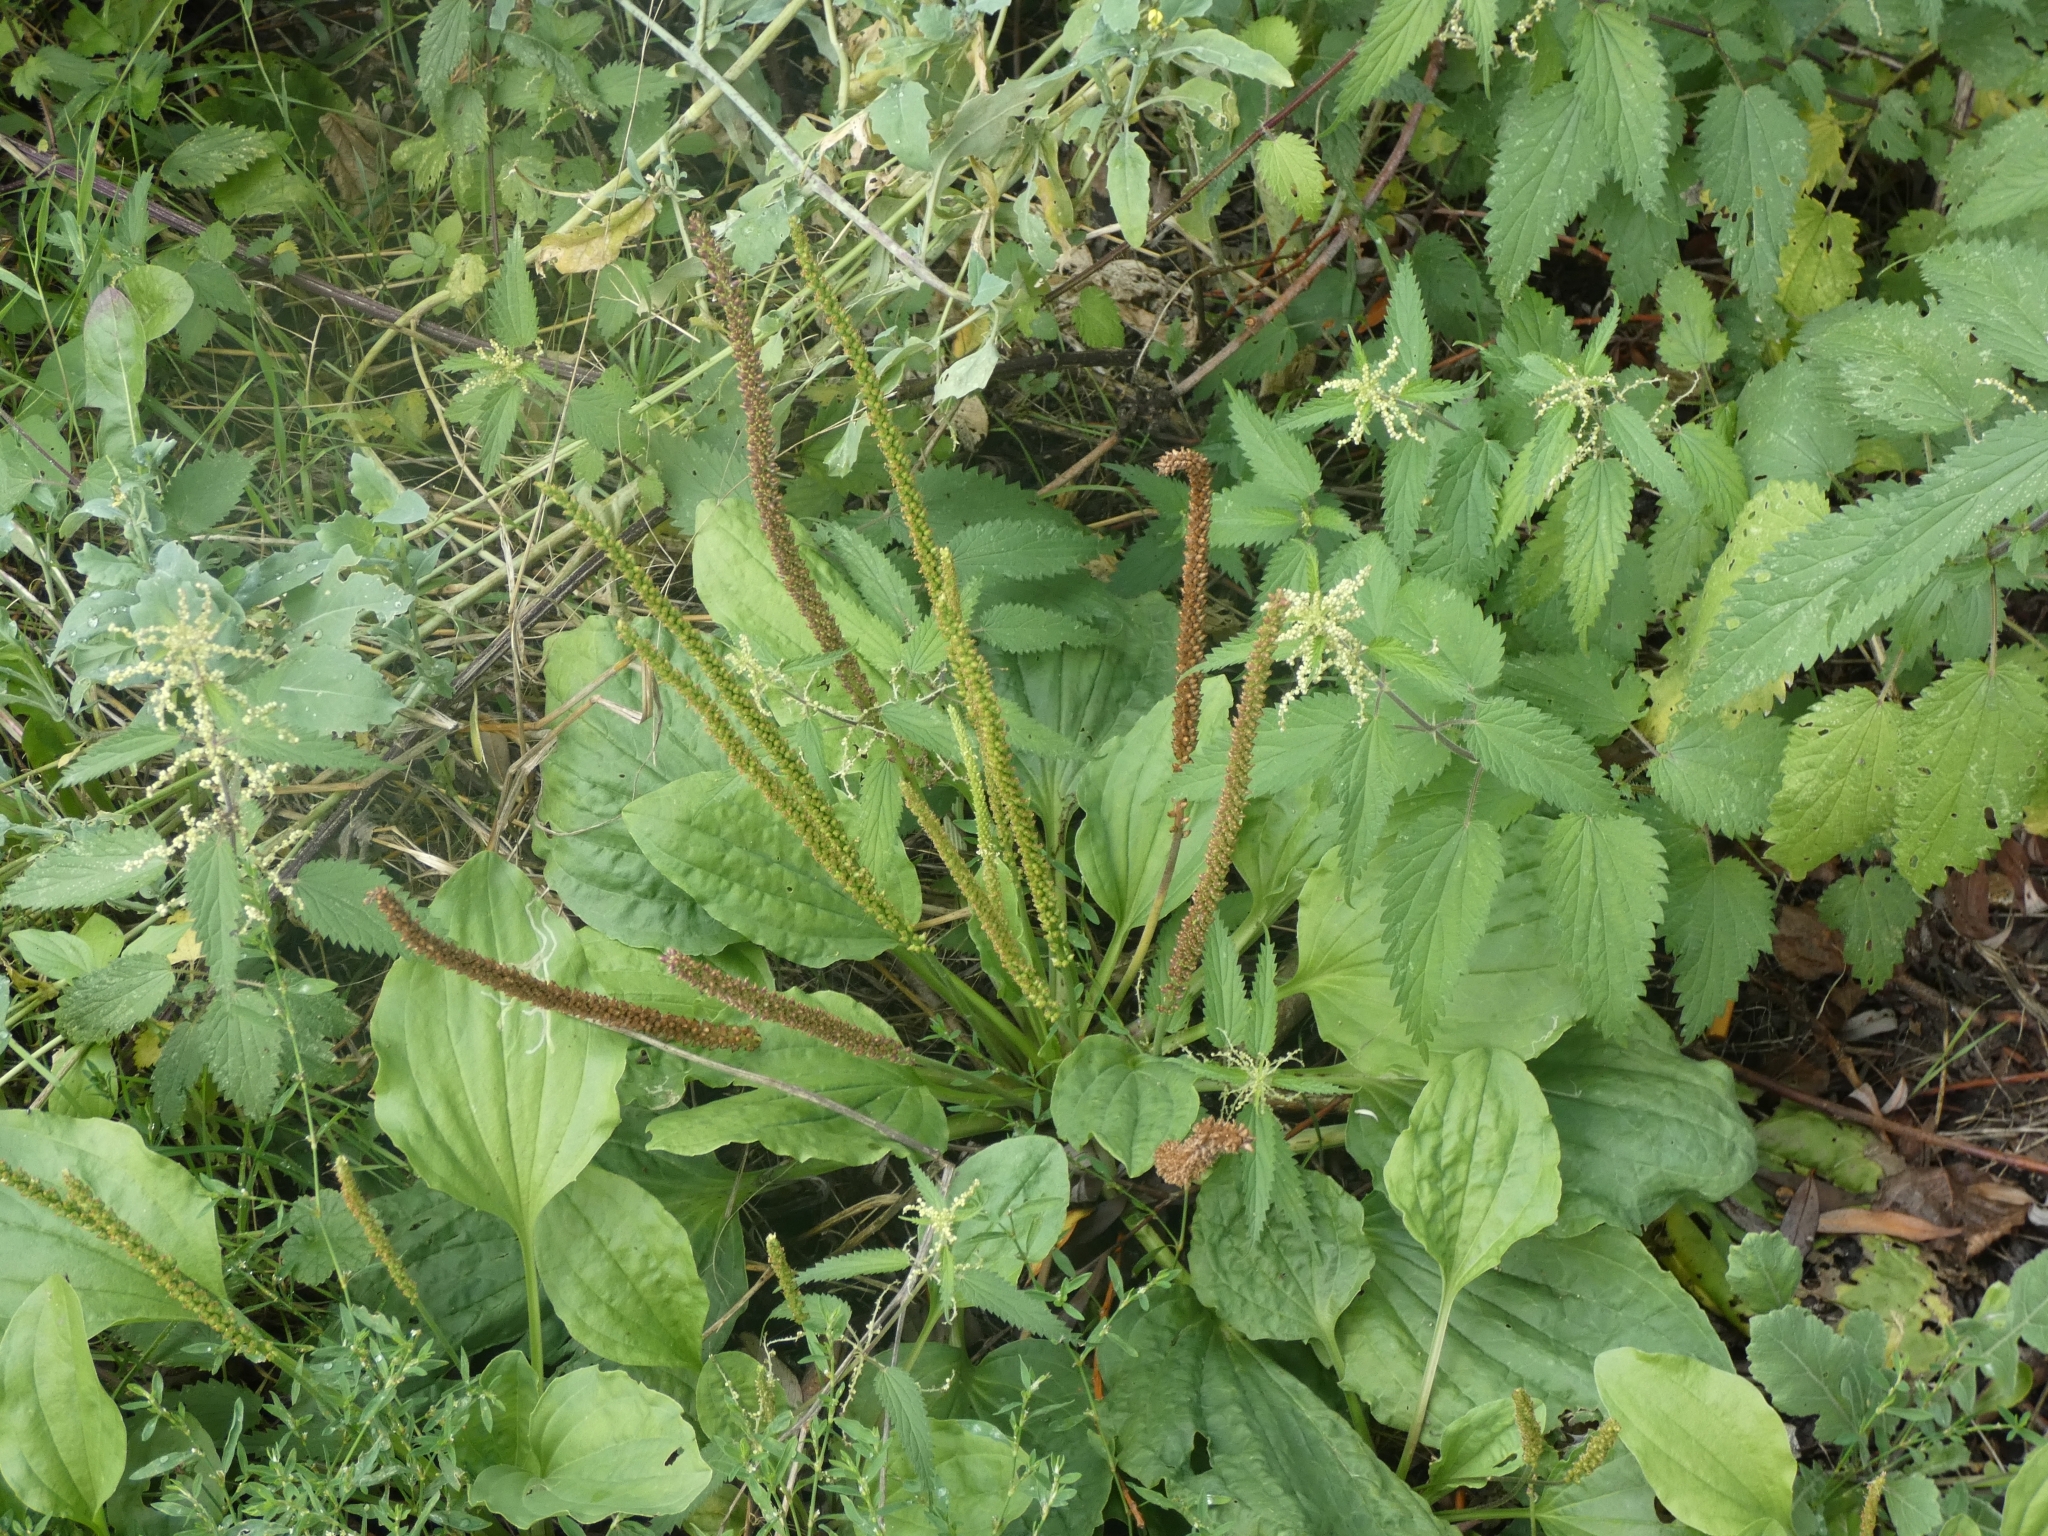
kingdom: Plantae
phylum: Tracheophyta
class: Magnoliopsida
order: Lamiales
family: Plantaginaceae
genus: Plantago
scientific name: Plantago major
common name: Common plantain
